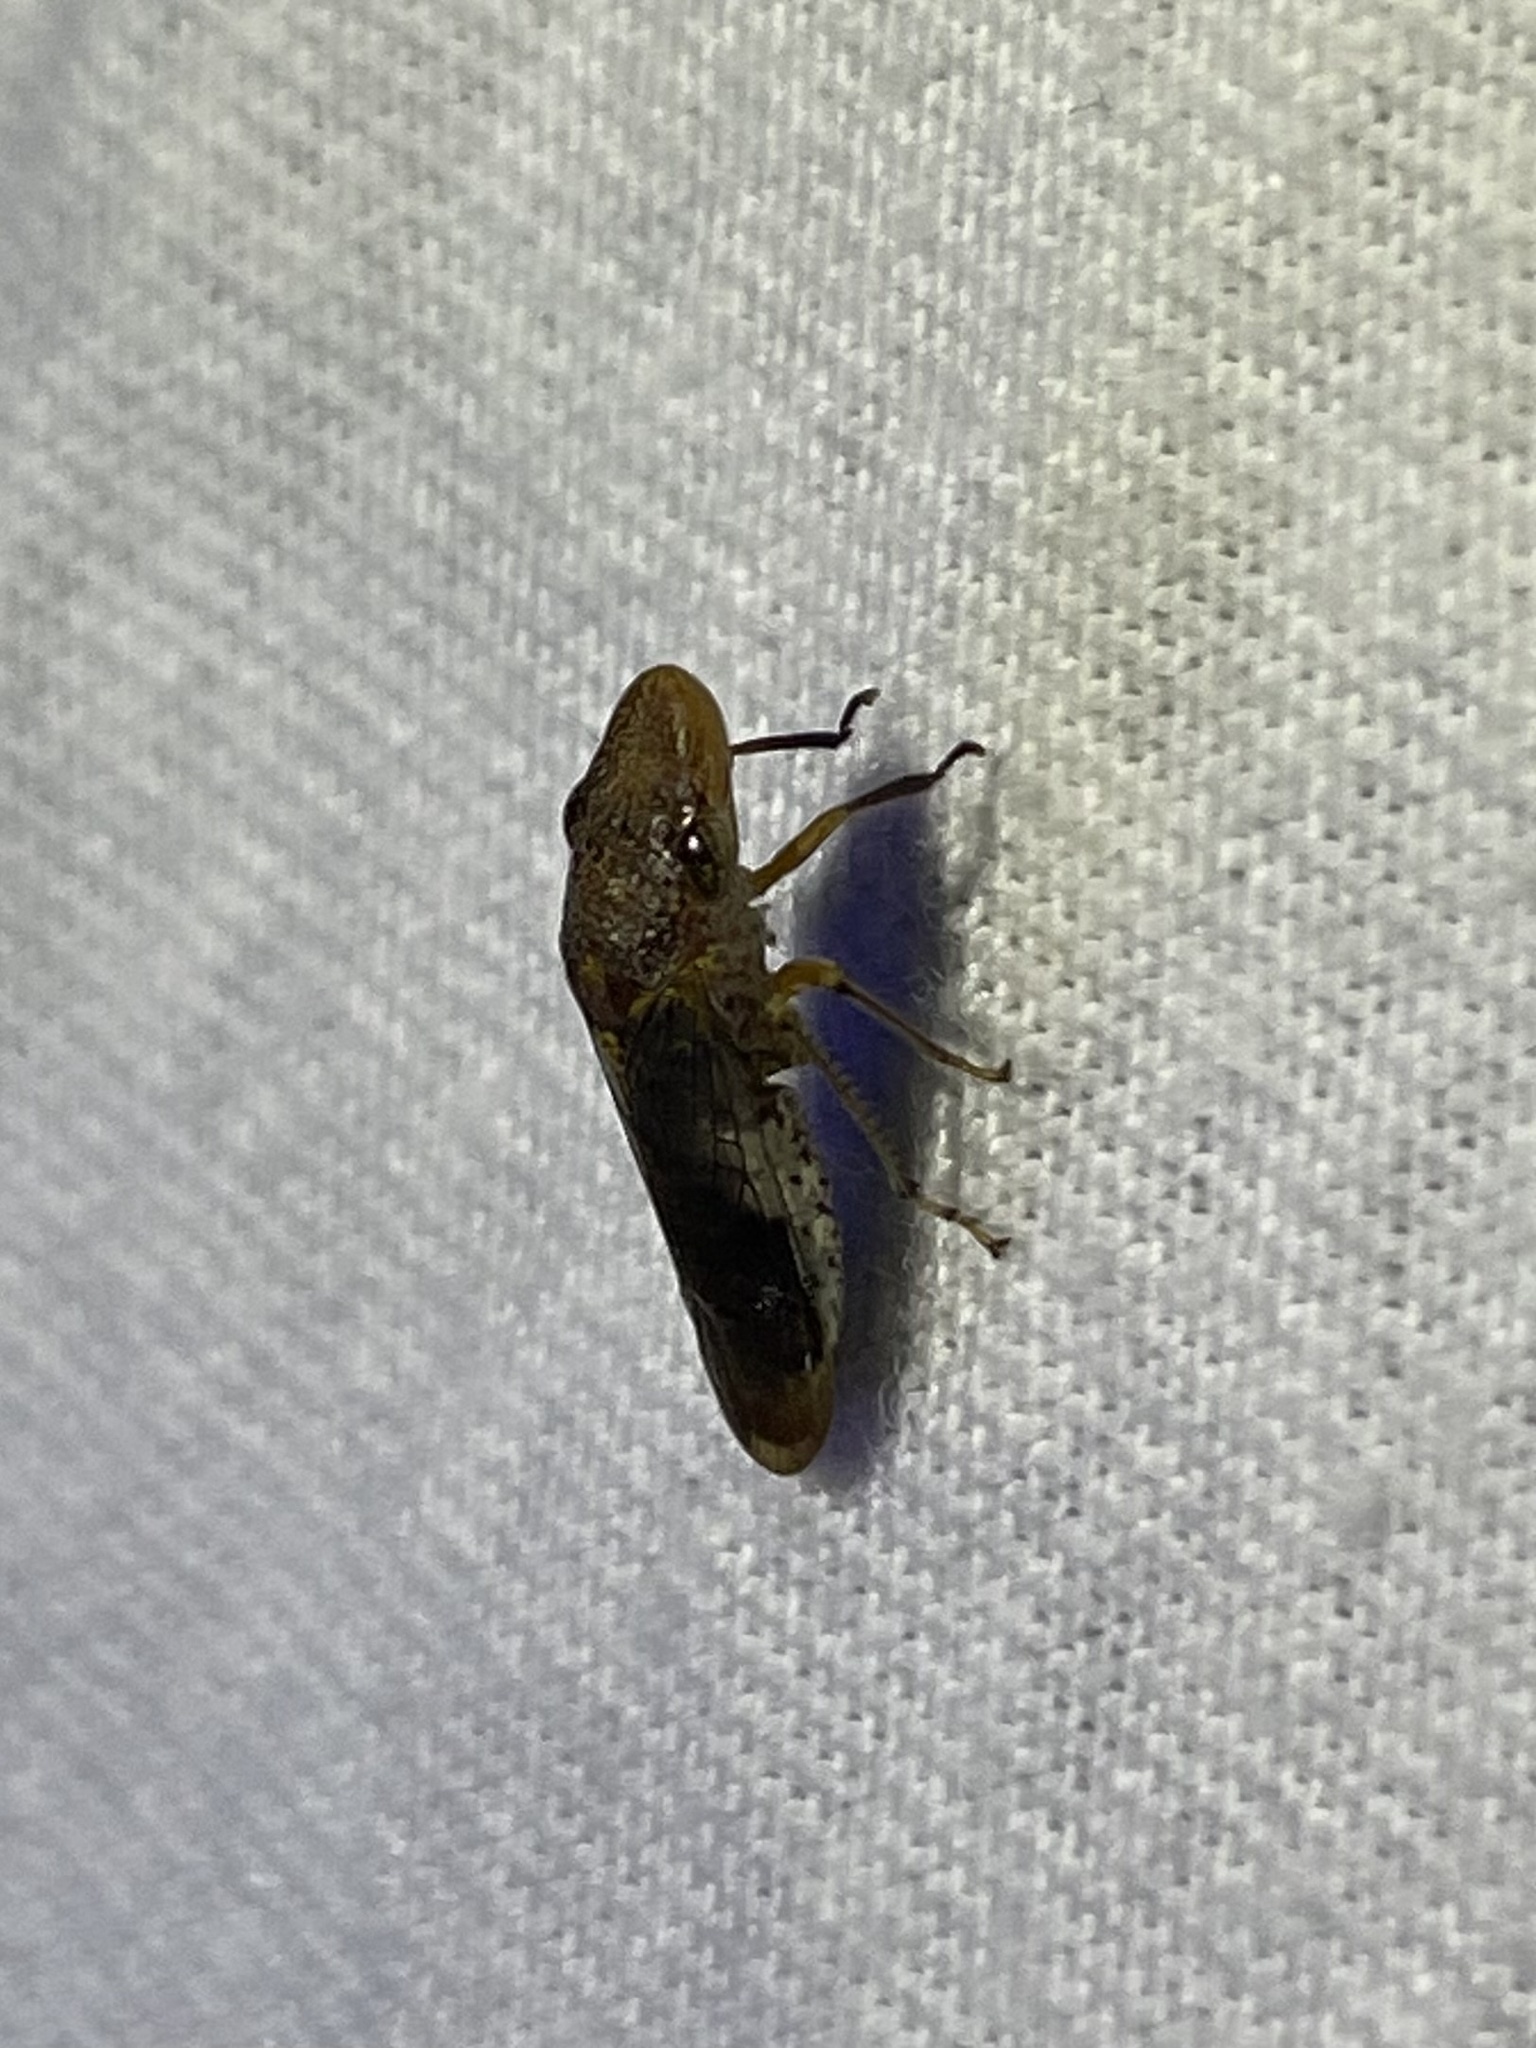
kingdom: Animalia
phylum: Arthropoda
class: Insecta
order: Hemiptera
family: Cicadellidae
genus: Homalodisca
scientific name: Homalodisca vitripennis
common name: Glassy-winged sharpshooter
